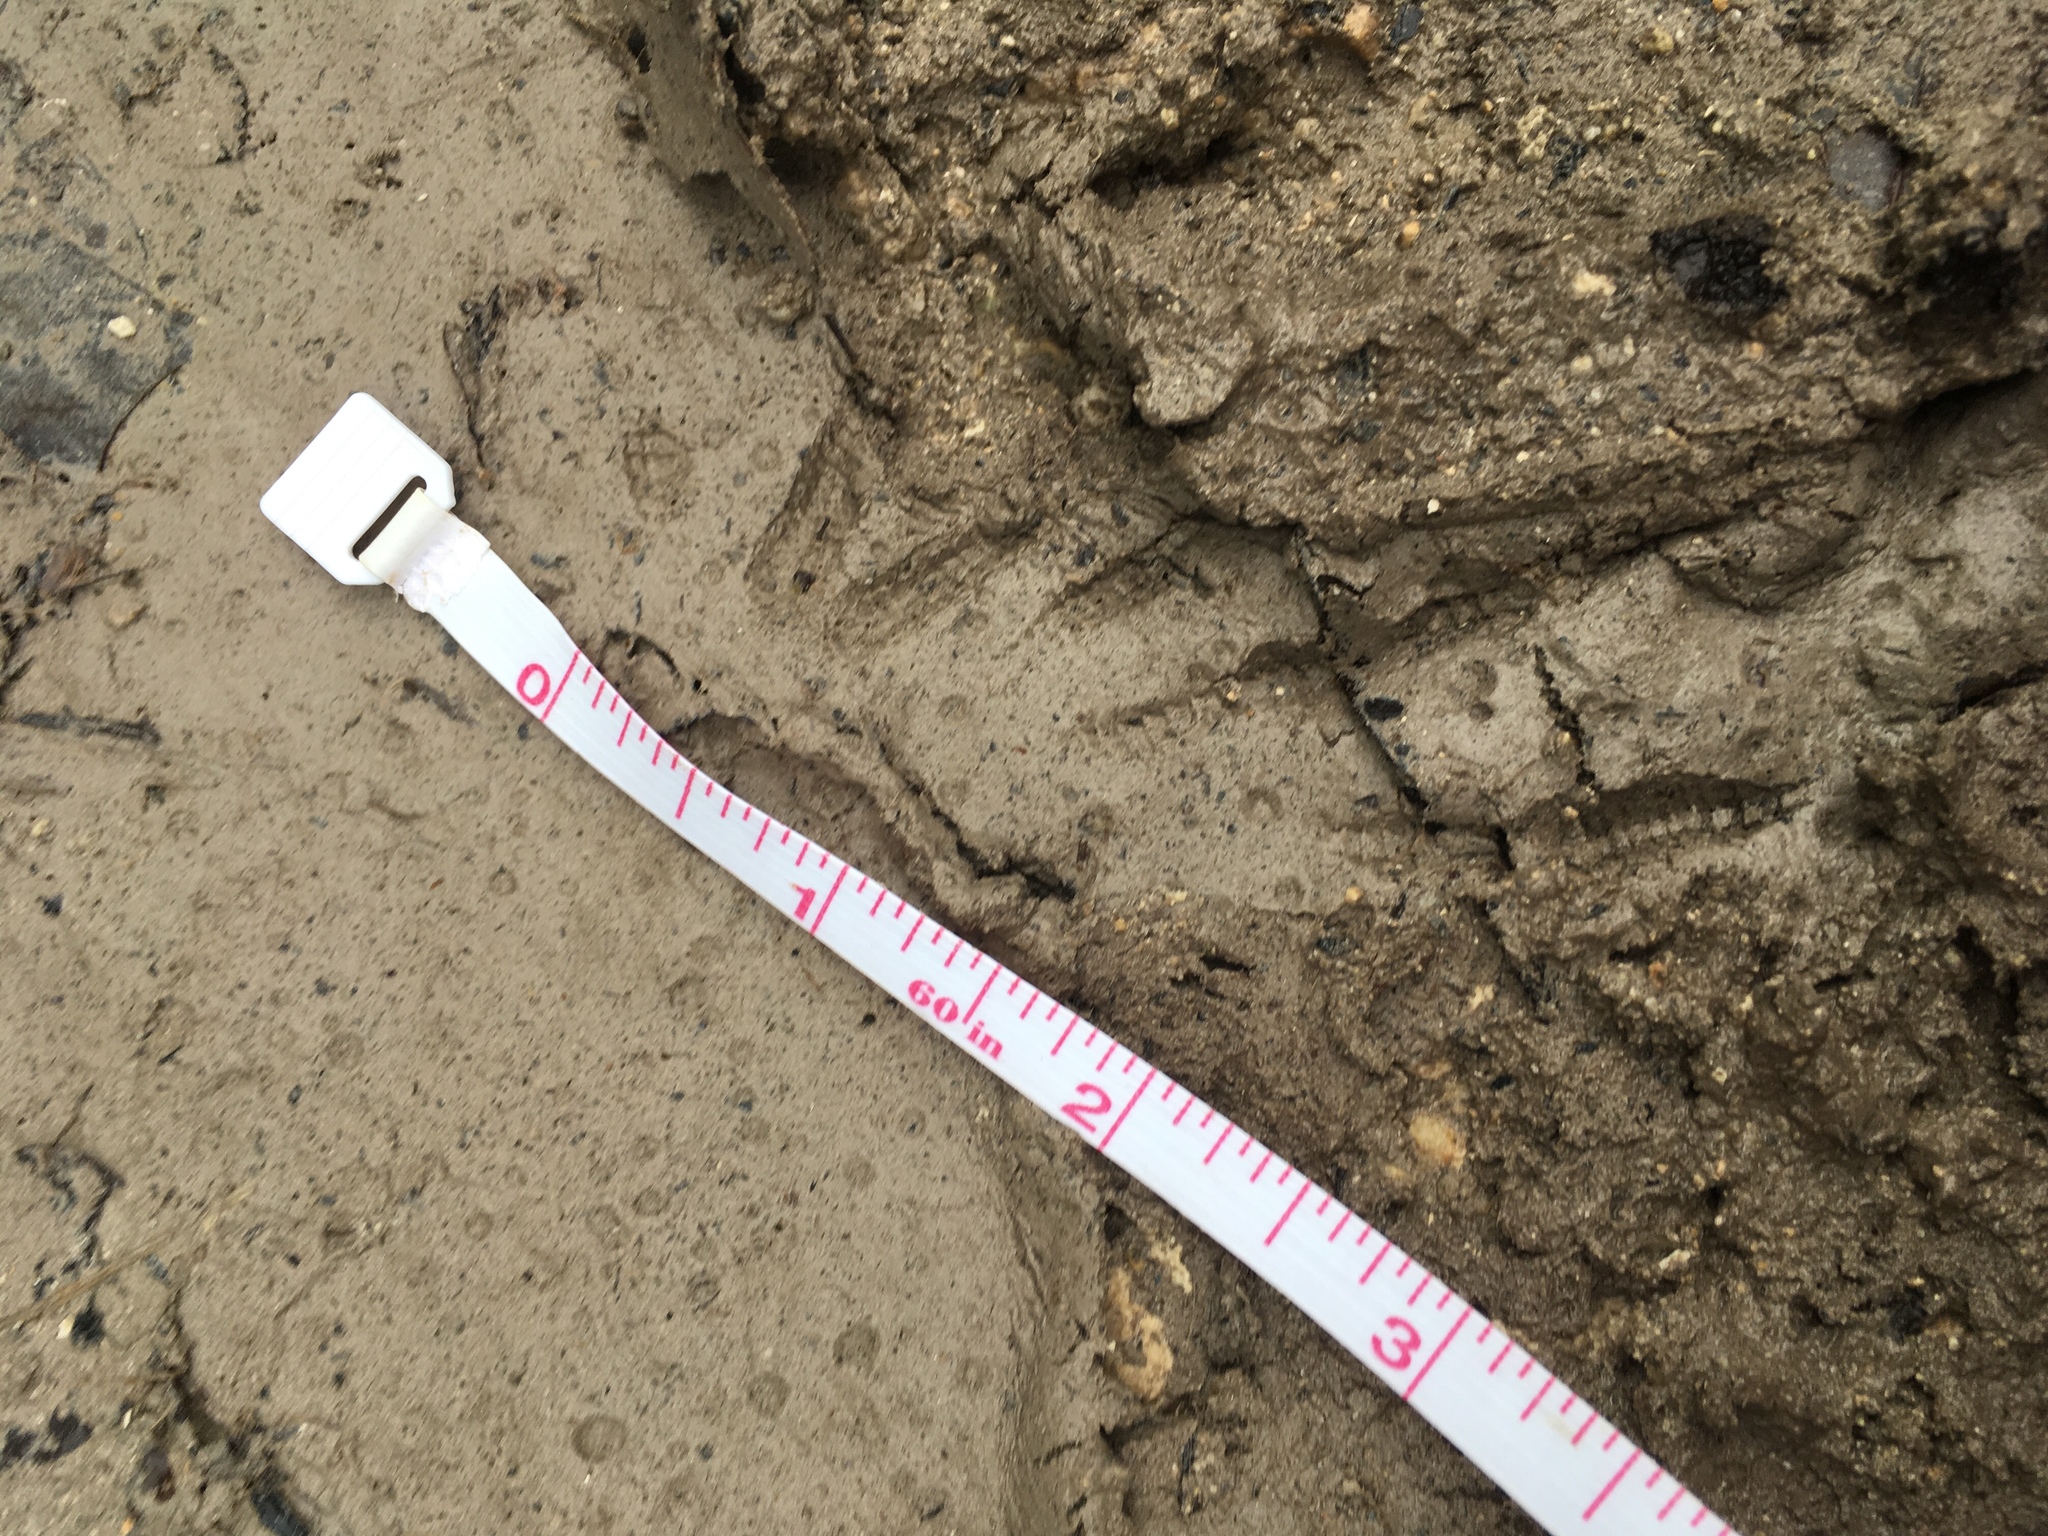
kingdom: Animalia
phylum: Chordata
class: Squamata
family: Iguanidae
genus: Iguana
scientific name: Iguana iguana
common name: Green iguana
